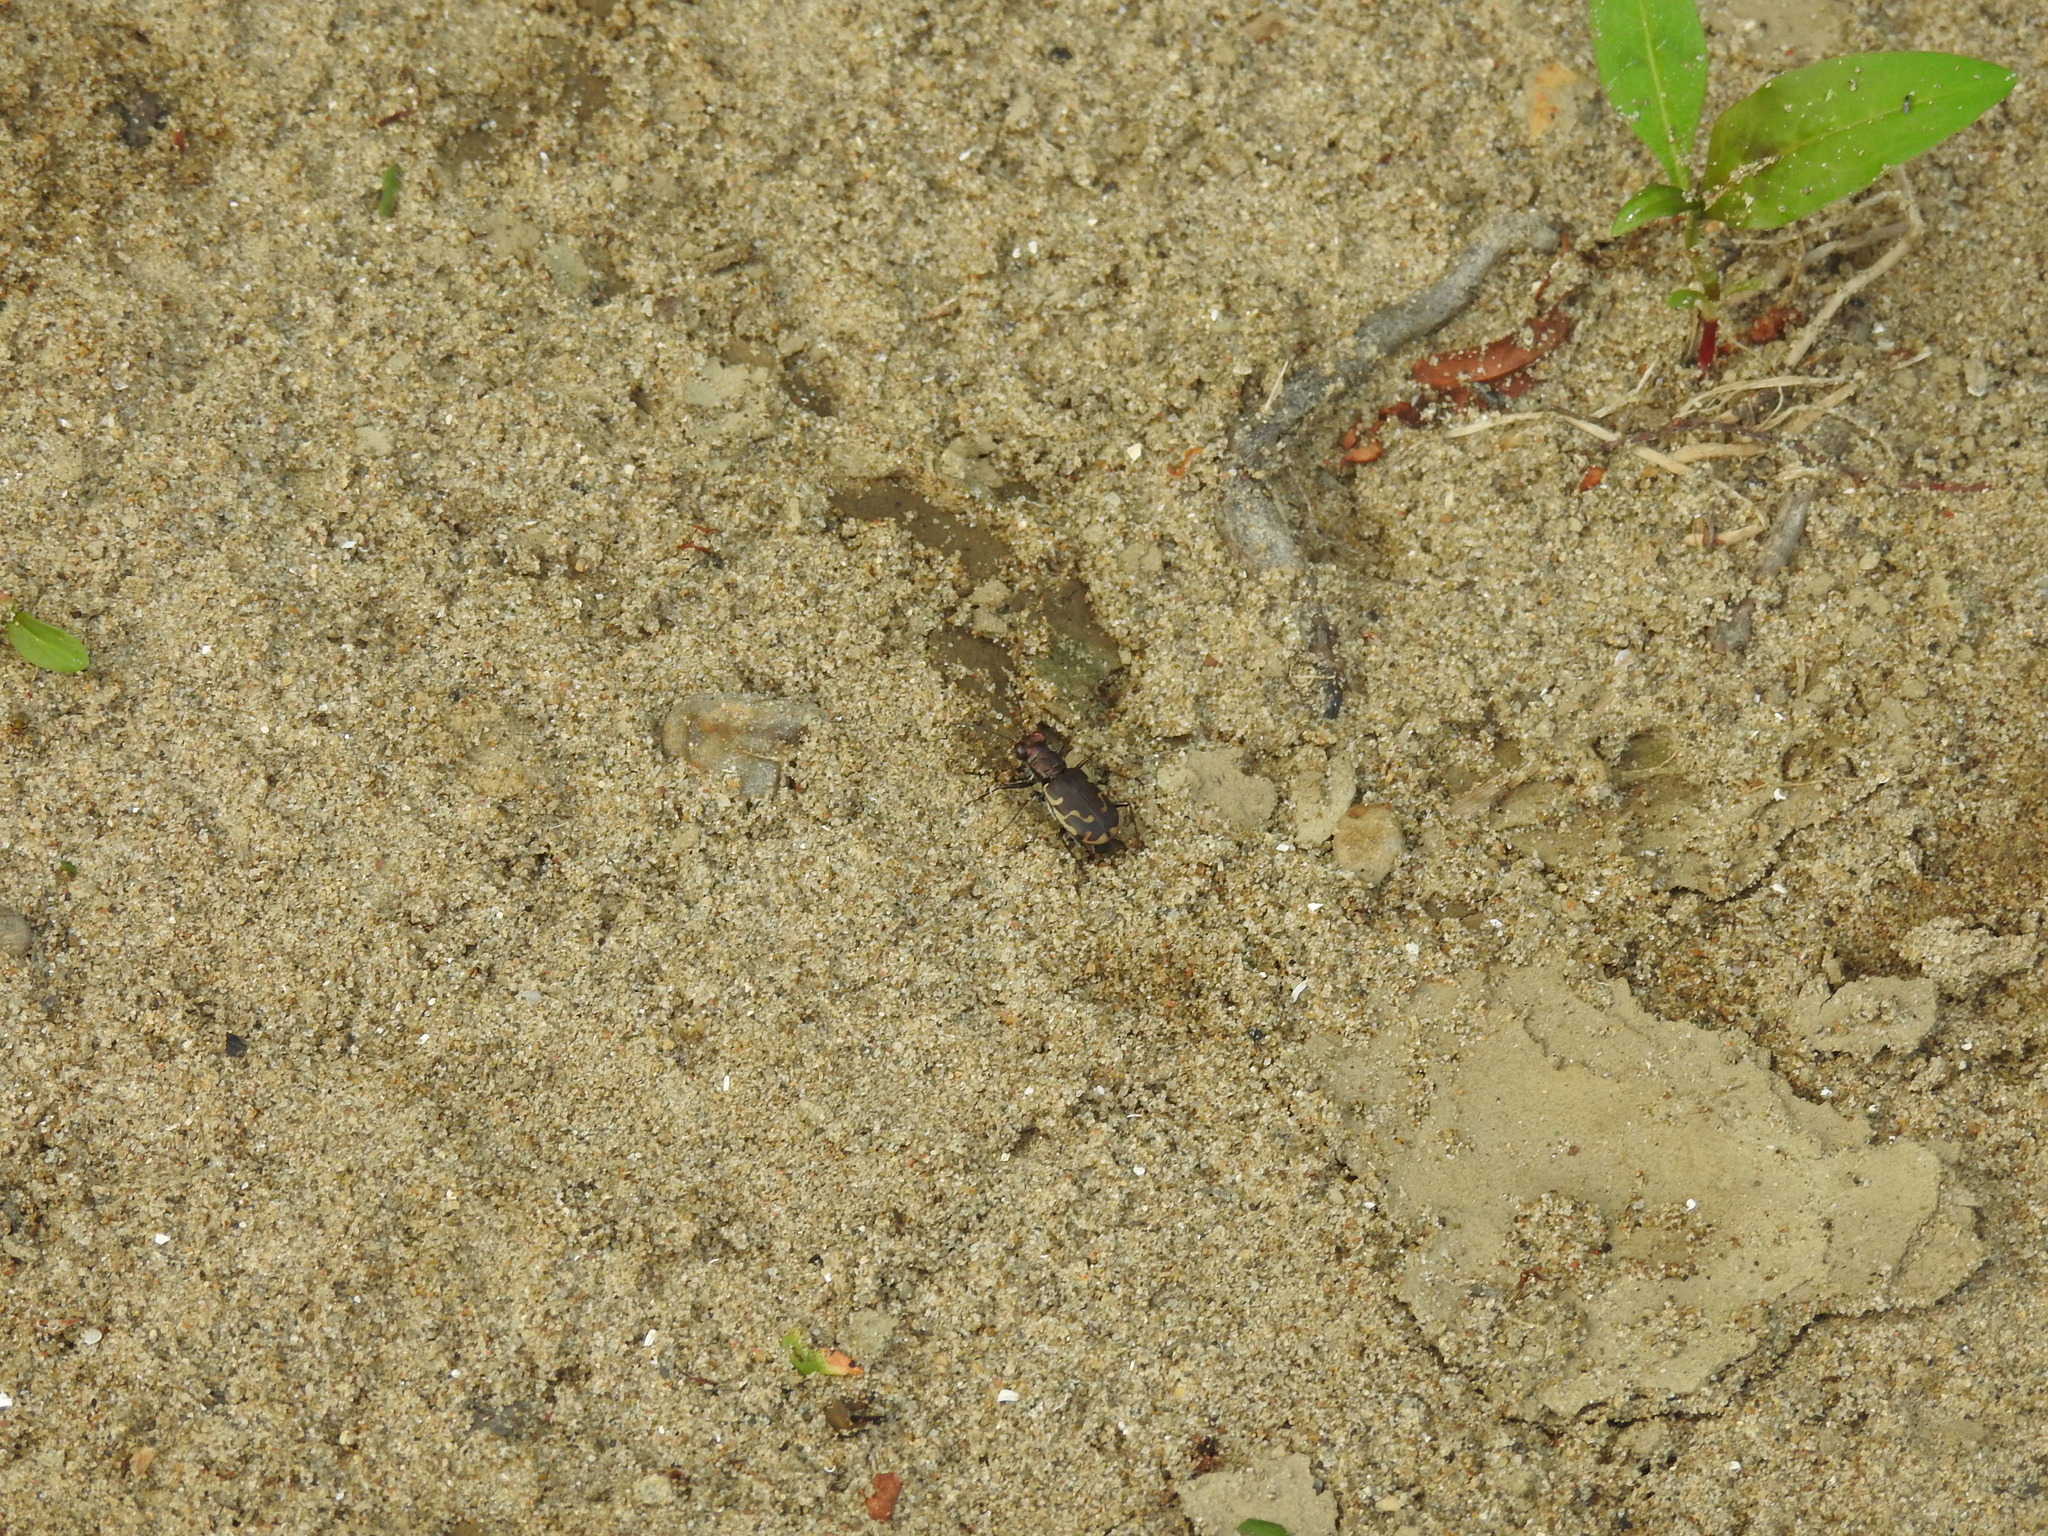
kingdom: Animalia
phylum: Arthropoda
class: Insecta
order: Coleoptera
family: Carabidae
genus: Cicindela
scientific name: Cicindela repanda
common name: Bronzed tiger beetle
